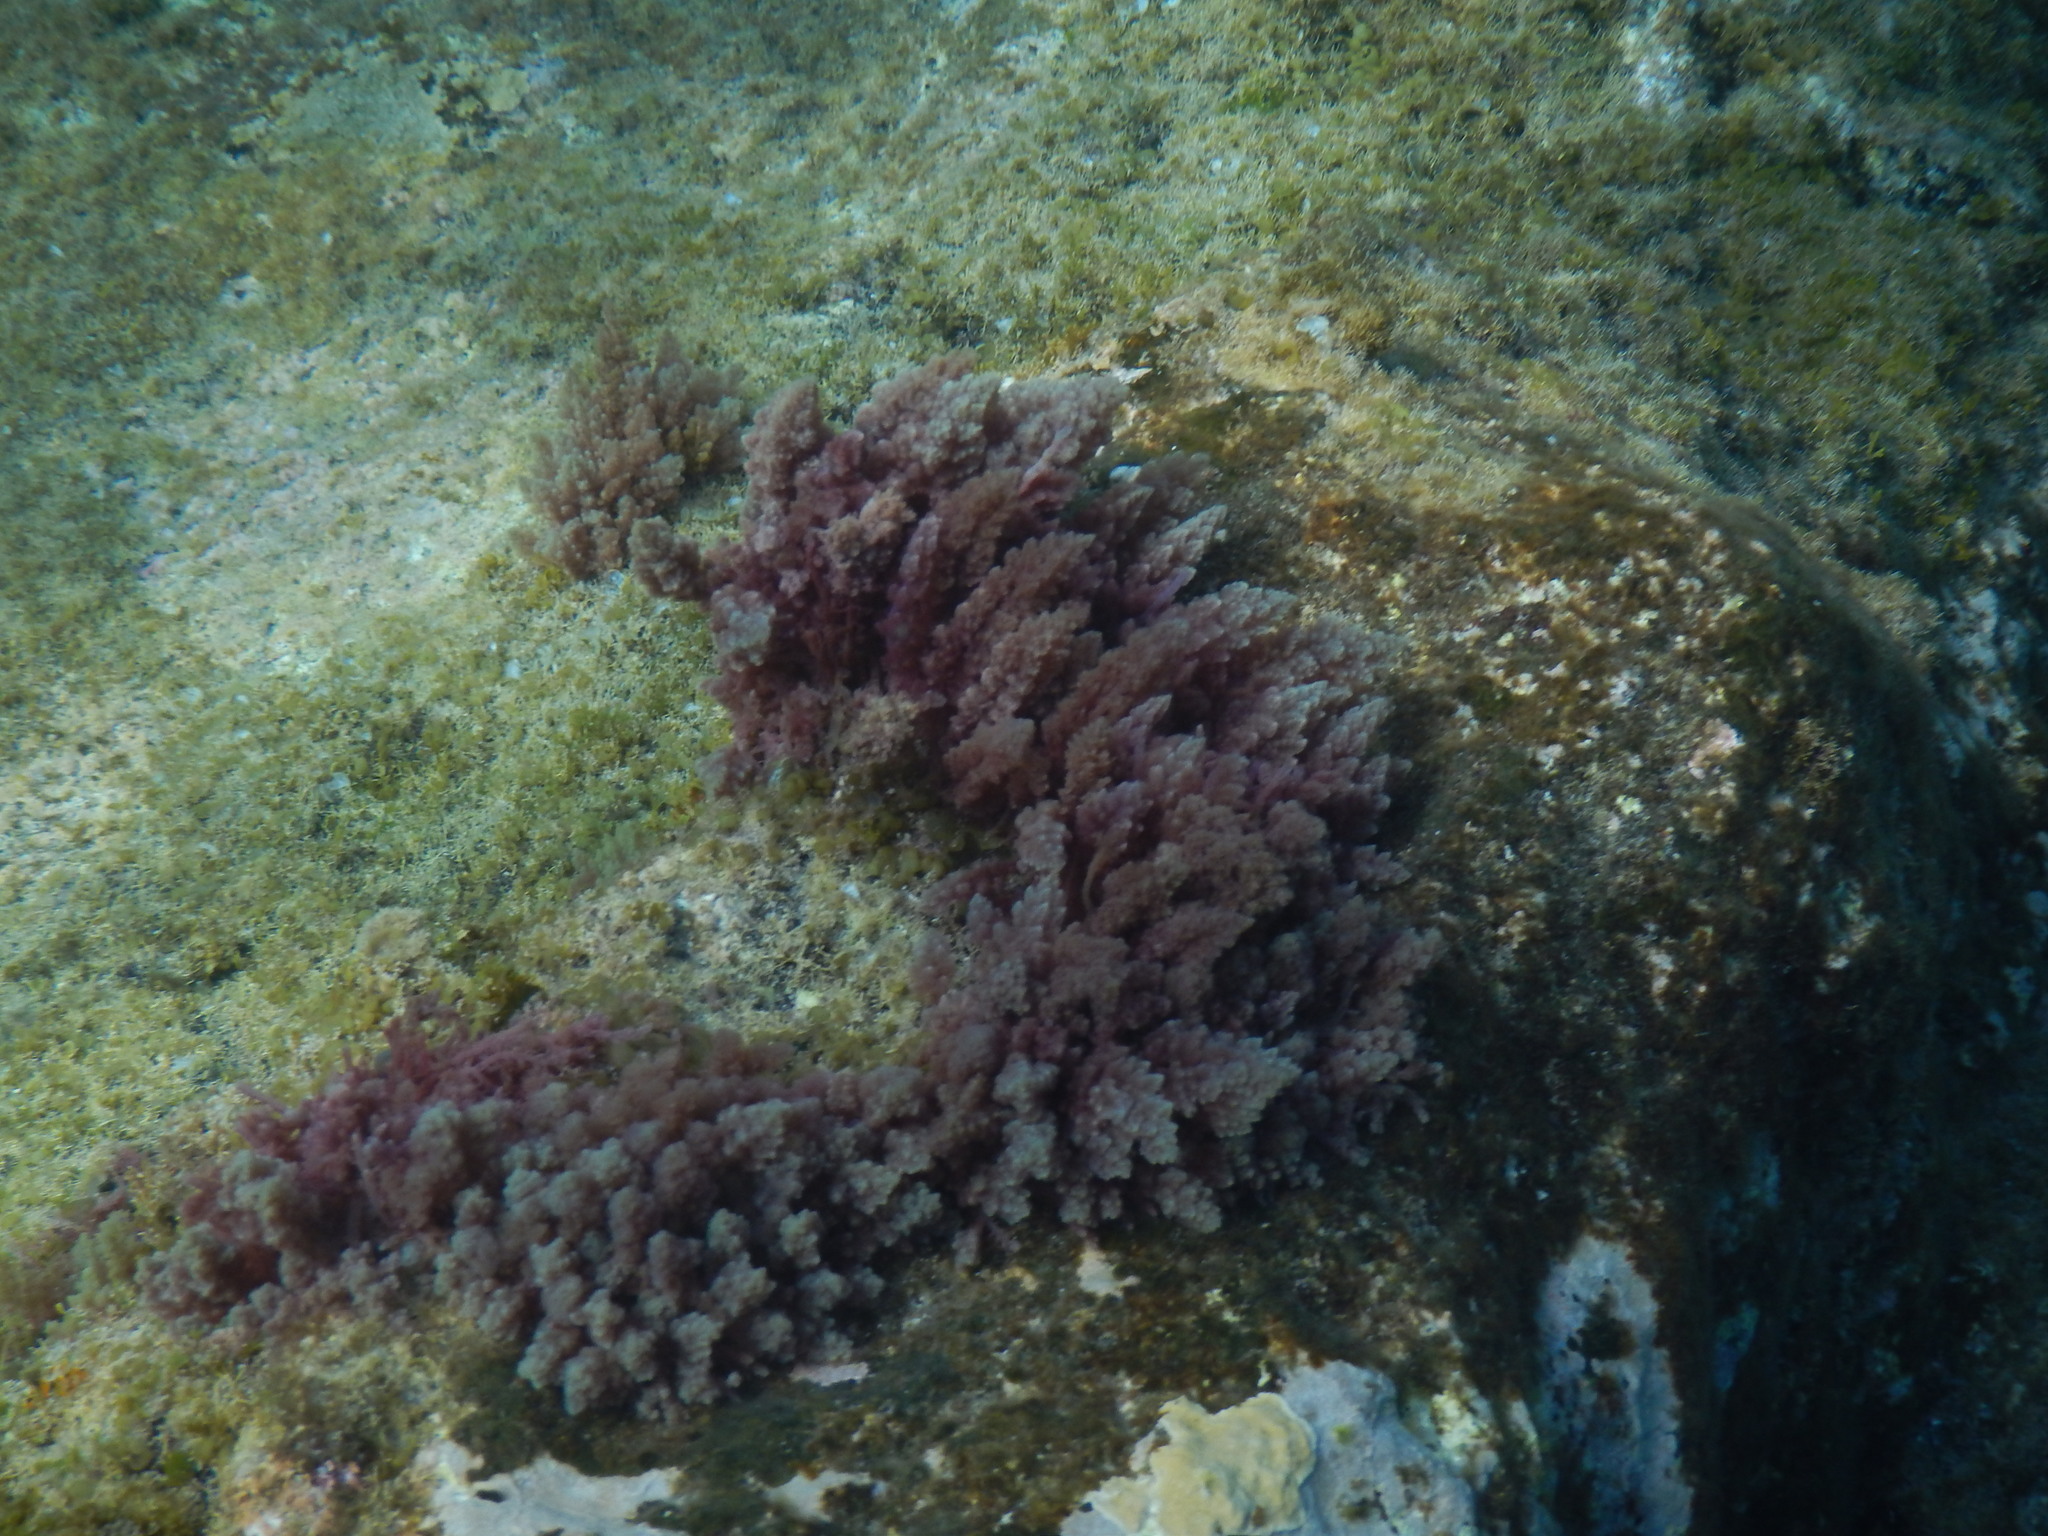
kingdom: Plantae
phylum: Rhodophyta
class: Florideophyceae
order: Bonnemaisoniales
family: Bonnemaisoniaceae
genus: Asparagopsis
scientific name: Asparagopsis taxiformis
